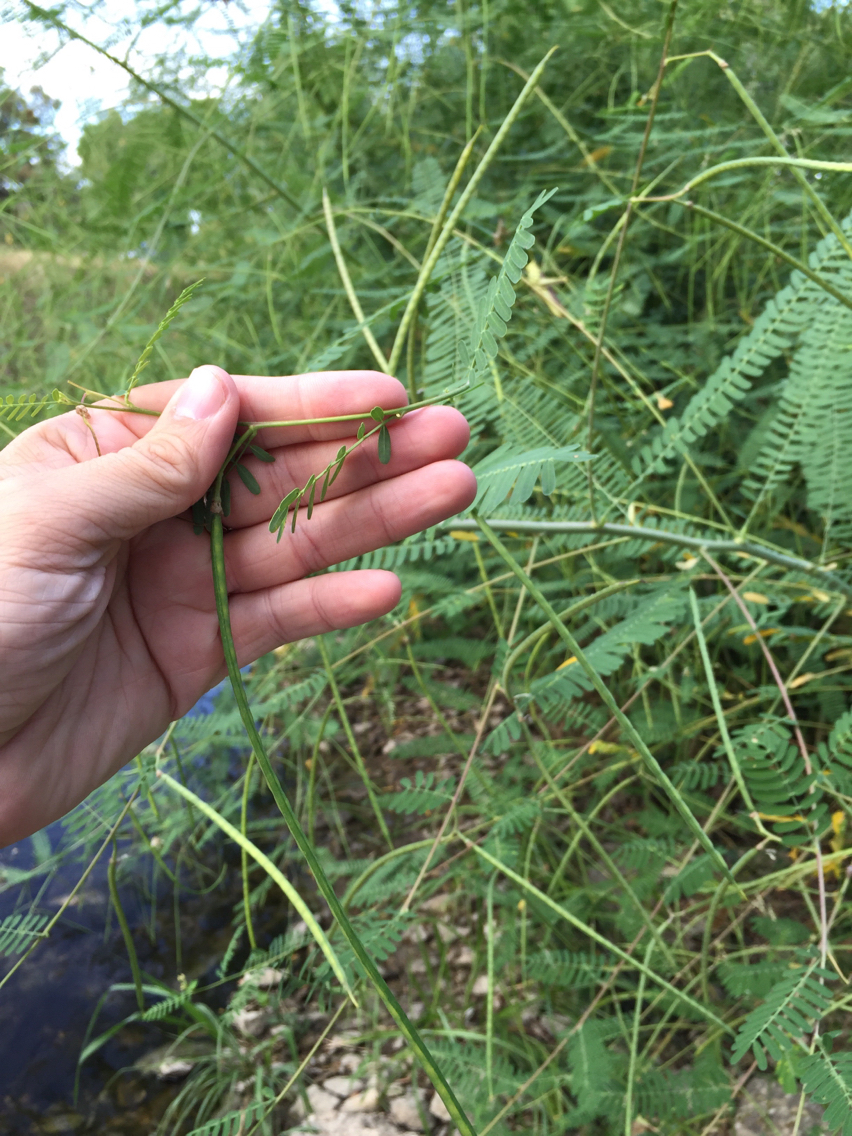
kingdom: Plantae
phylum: Tracheophyta
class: Magnoliopsida
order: Fabales
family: Fabaceae
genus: Sesbania
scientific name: Sesbania herbacea
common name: Bigpod sesbania
